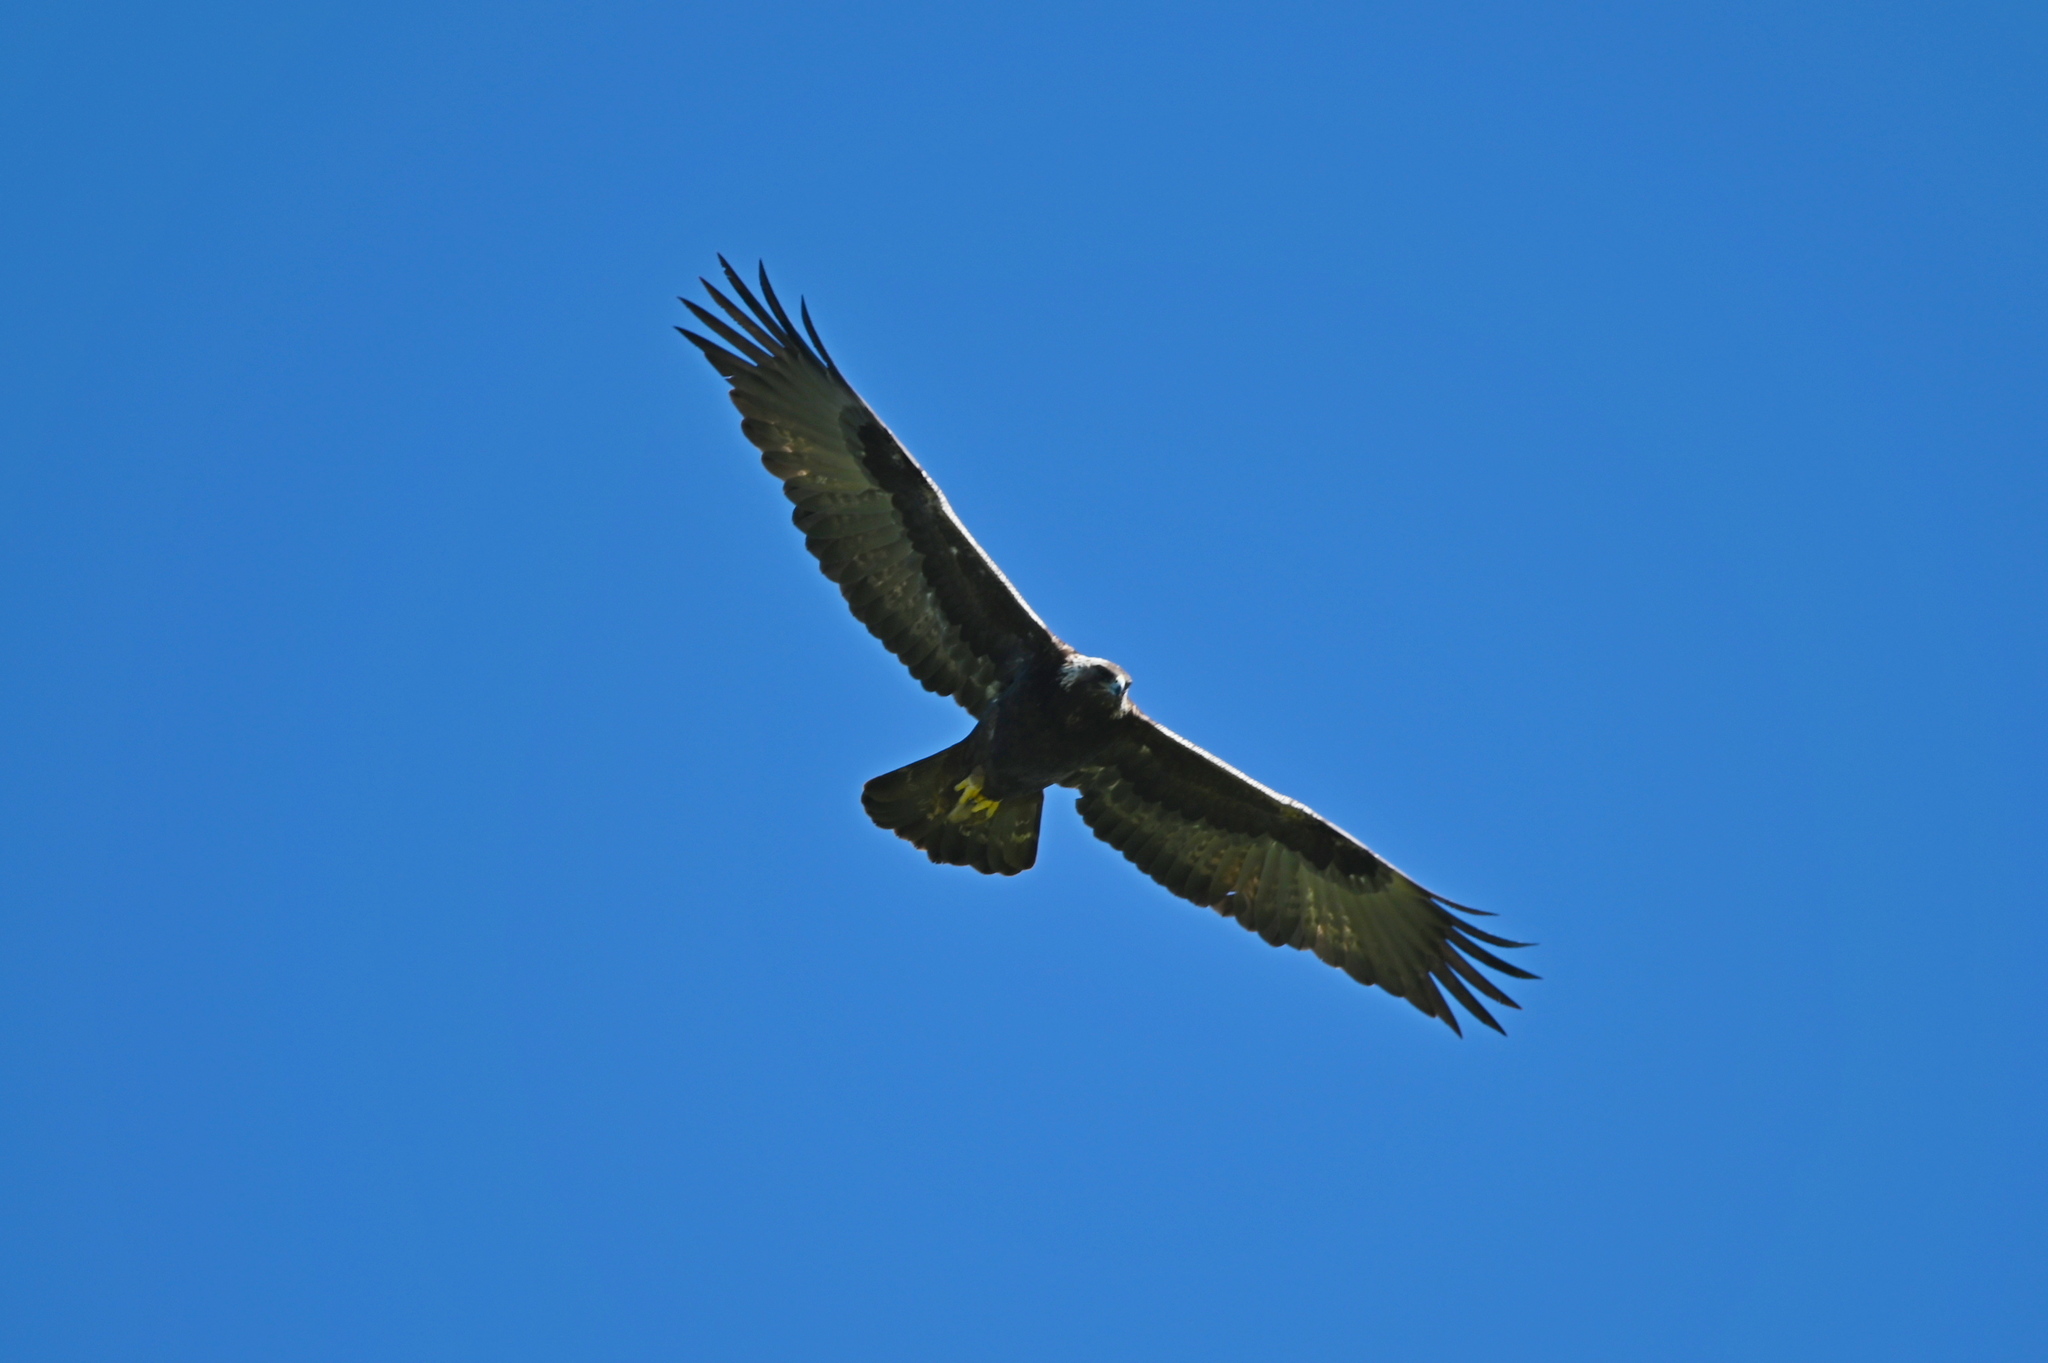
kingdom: Animalia
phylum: Chordata
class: Aves
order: Accipitriformes
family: Accipitridae
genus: Aquila
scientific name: Aquila chrysaetos
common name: Golden eagle
